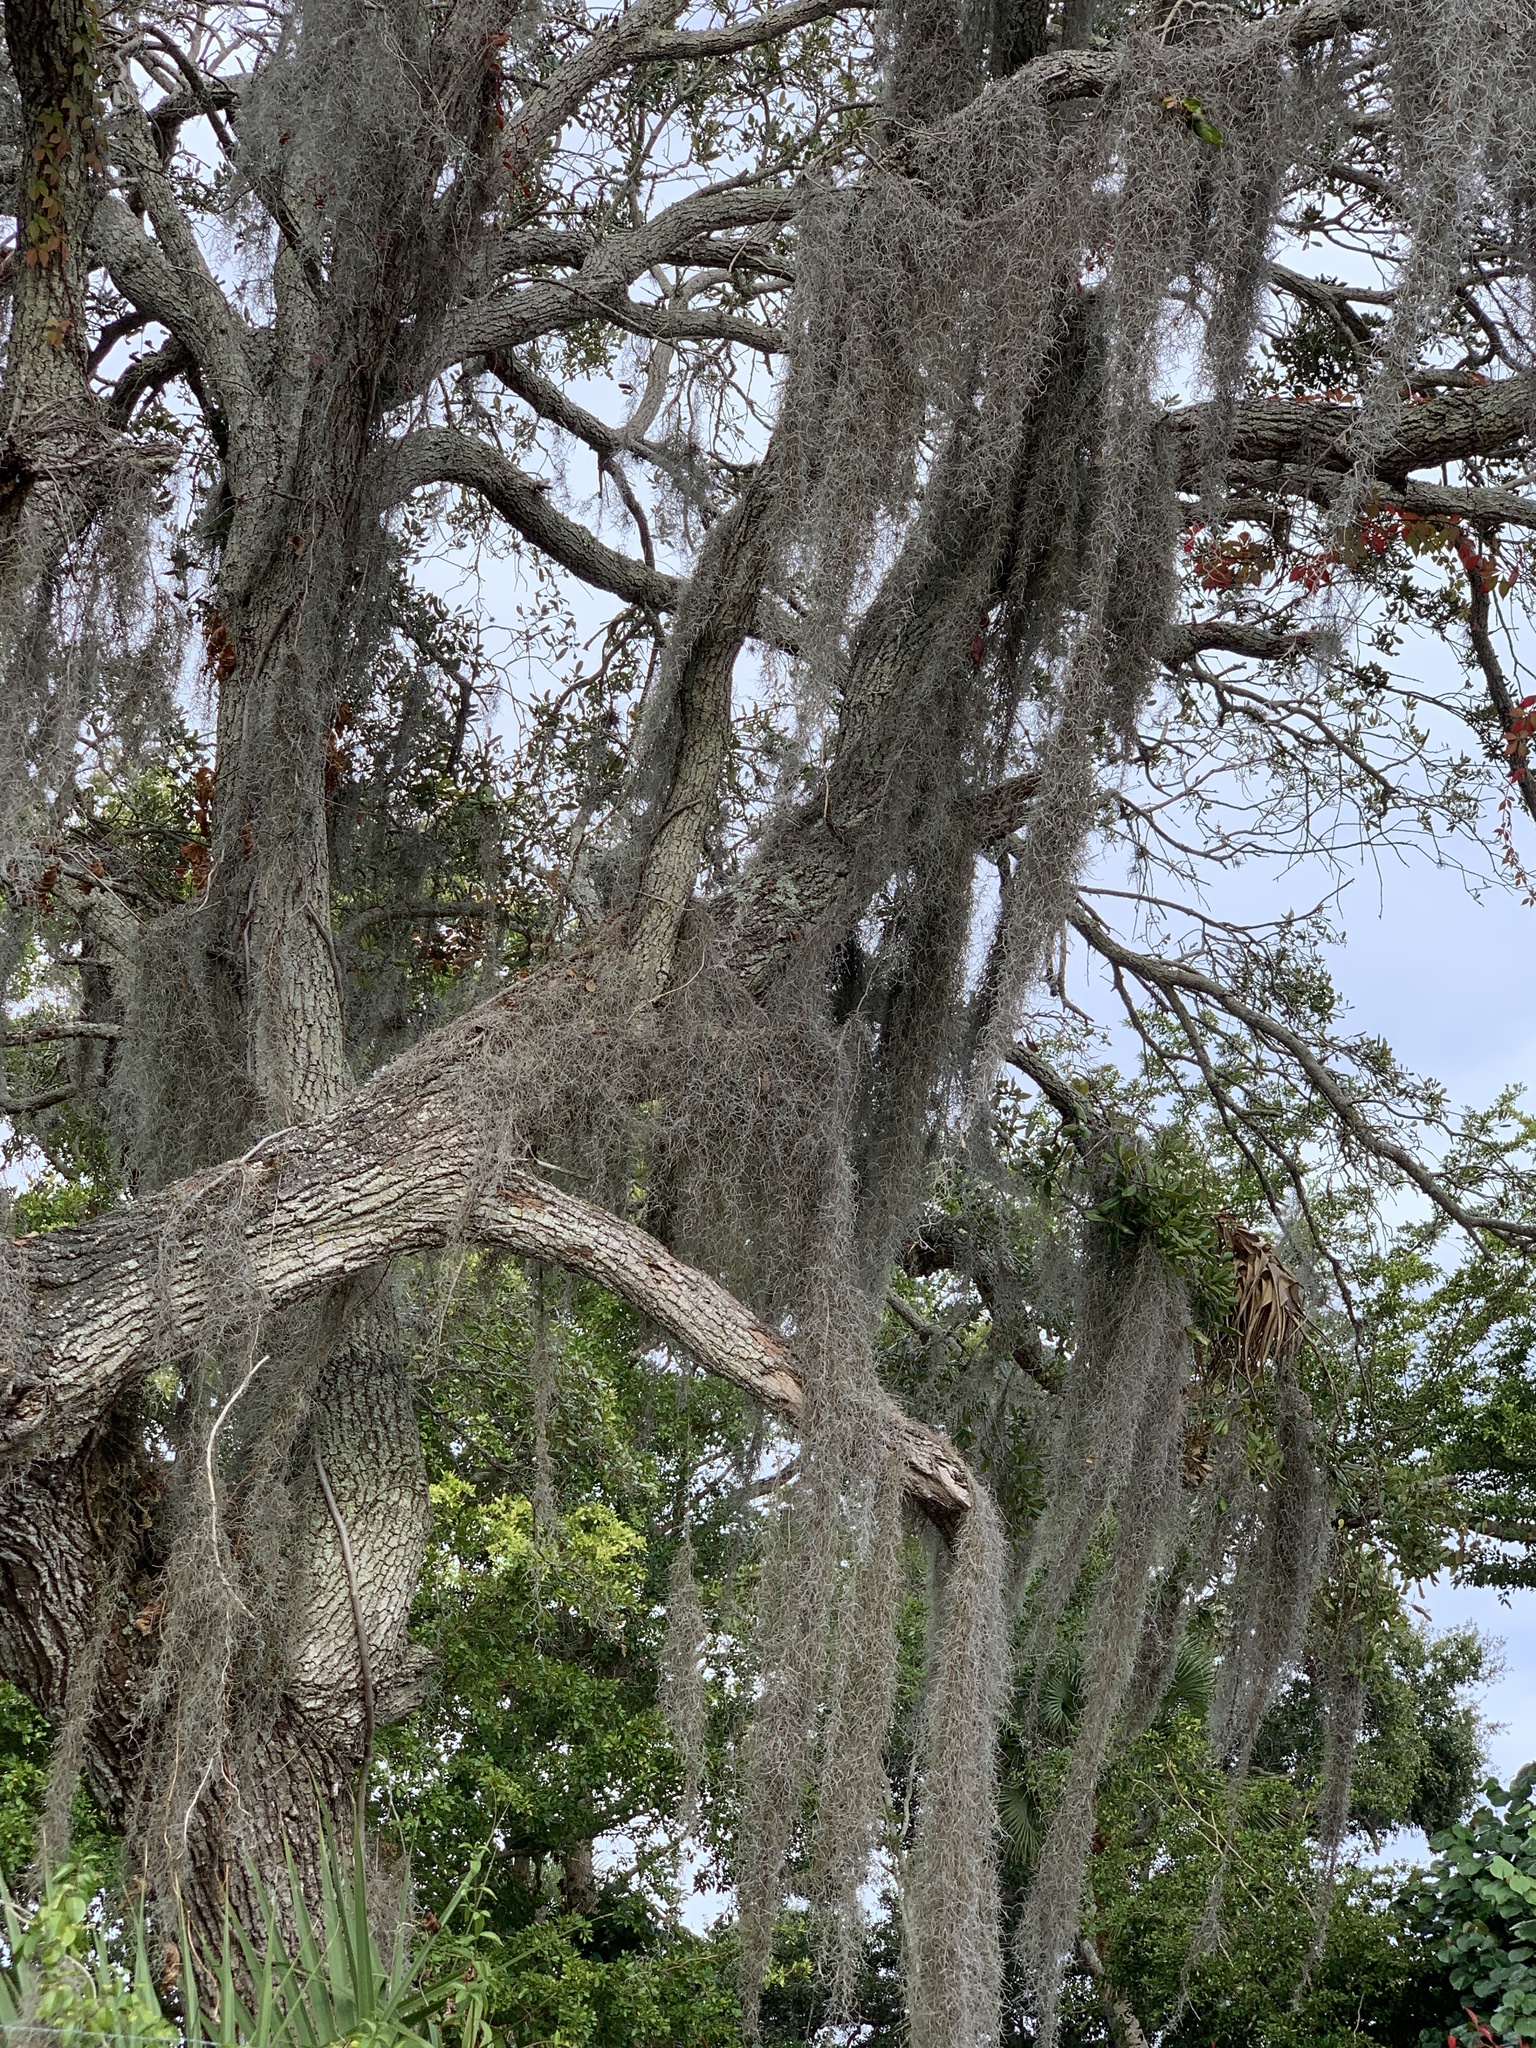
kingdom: Plantae
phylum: Tracheophyta
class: Liliopsida
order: Poales
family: Bromeliaceae
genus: Tillandsia
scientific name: Tillandsia usneoides
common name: Spanish moss
